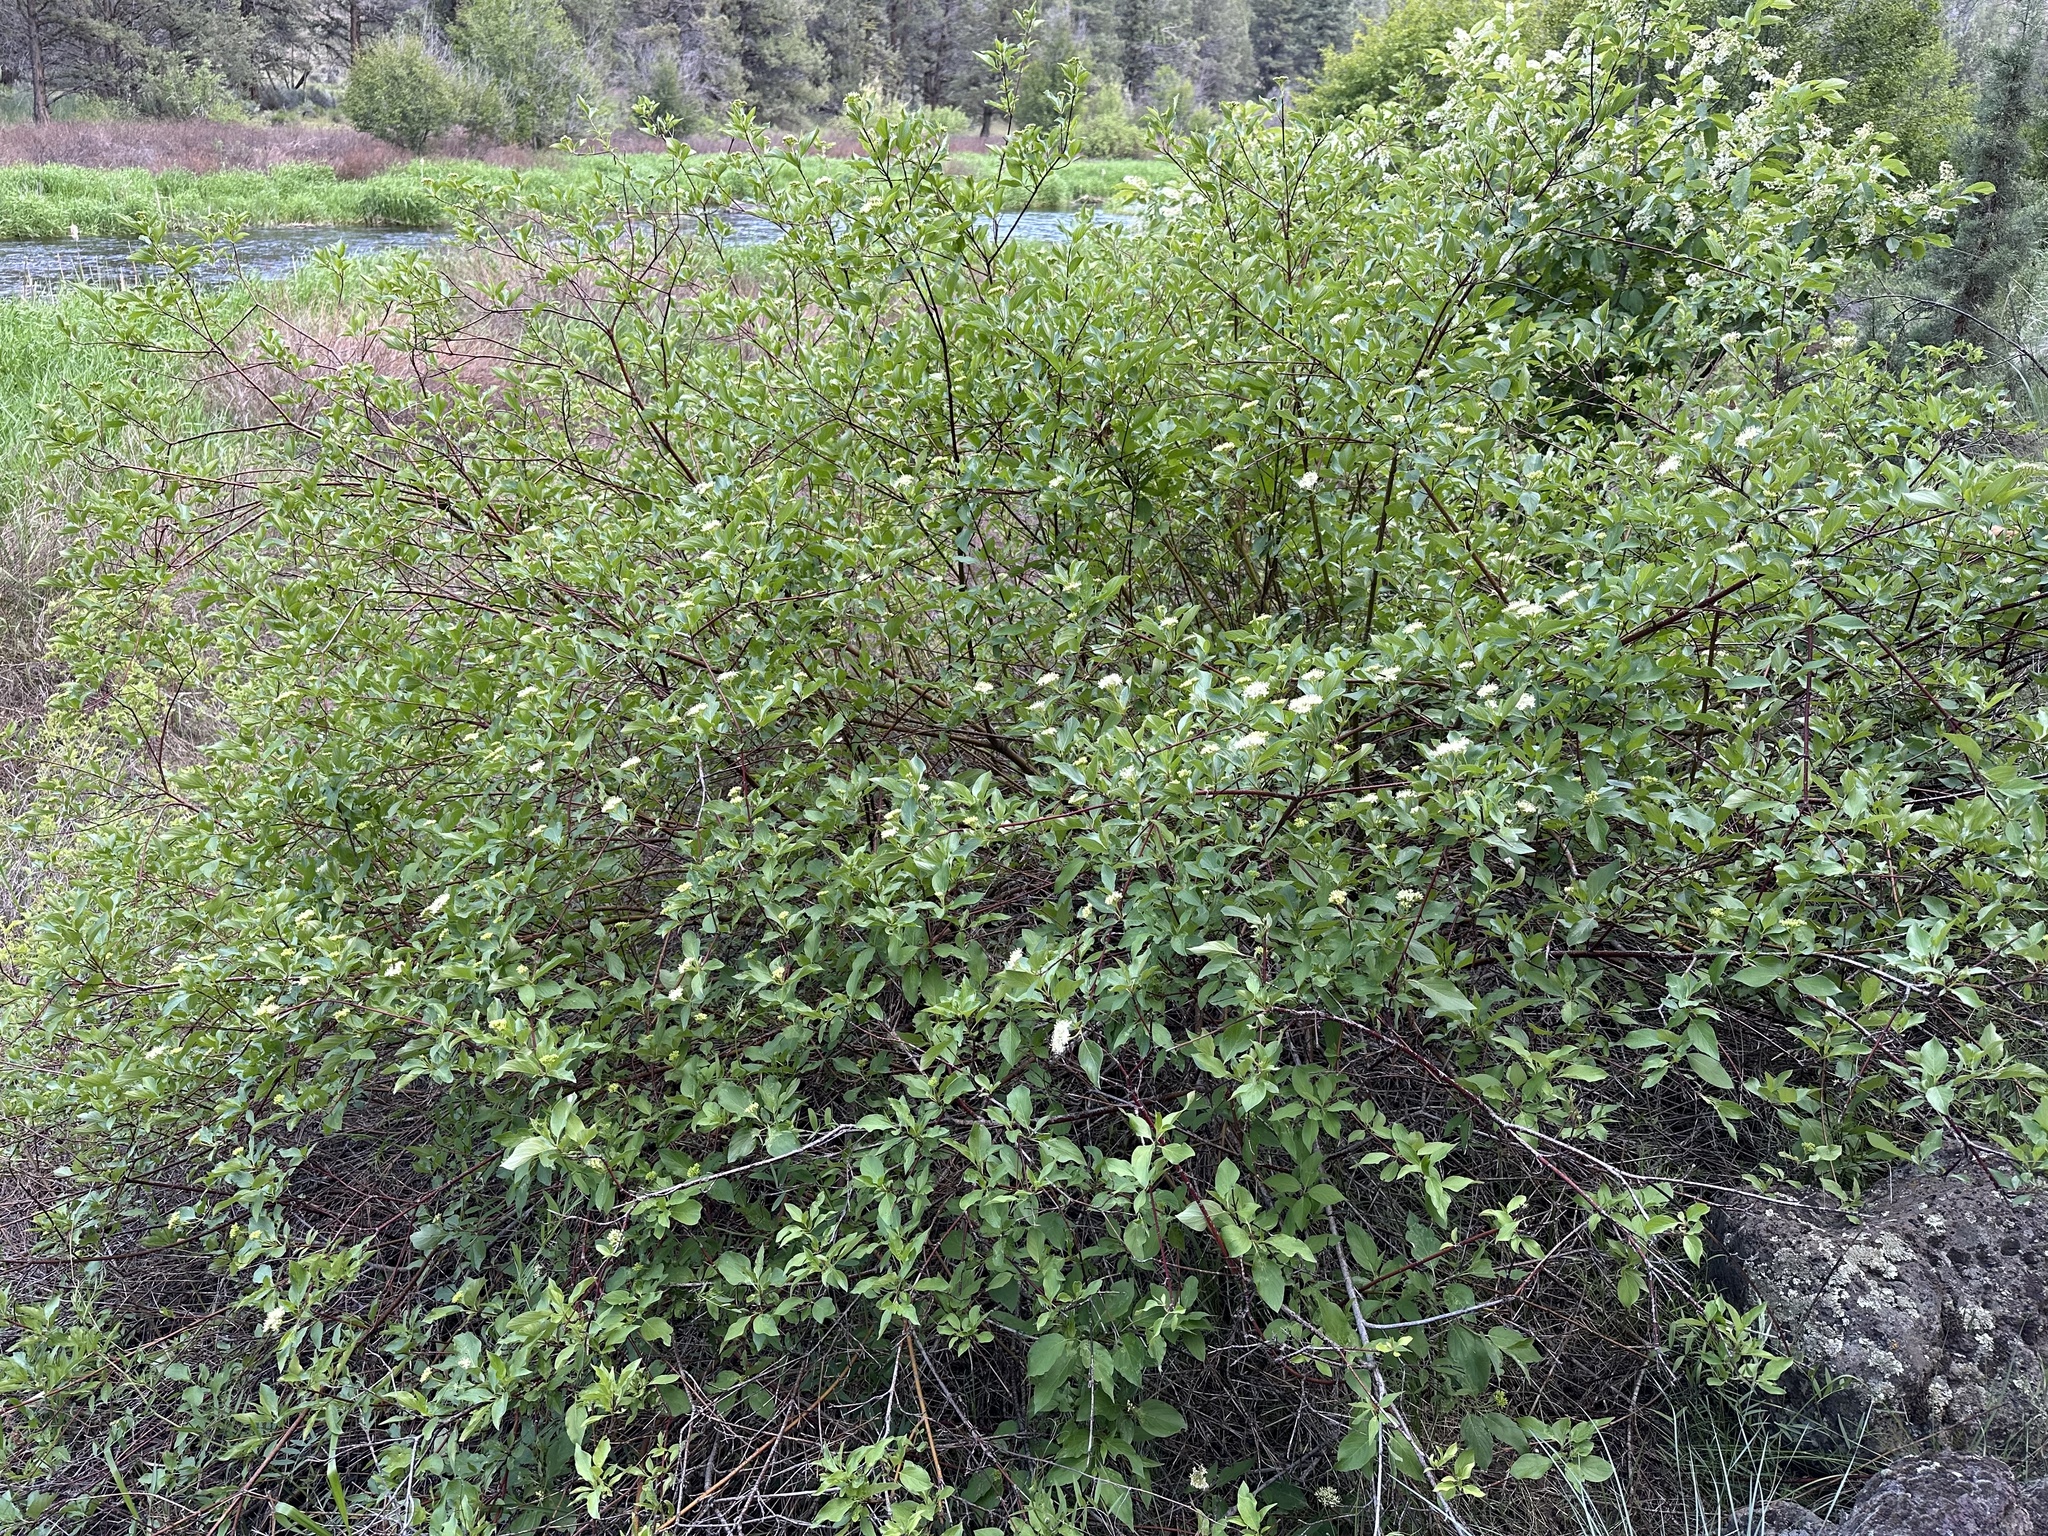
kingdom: Plantae
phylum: Tracheophyta
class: Magnoliopsida
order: Cornales
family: Cornaceae
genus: Cornus
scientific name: Cornus sericea
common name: Red-osier dogwood
